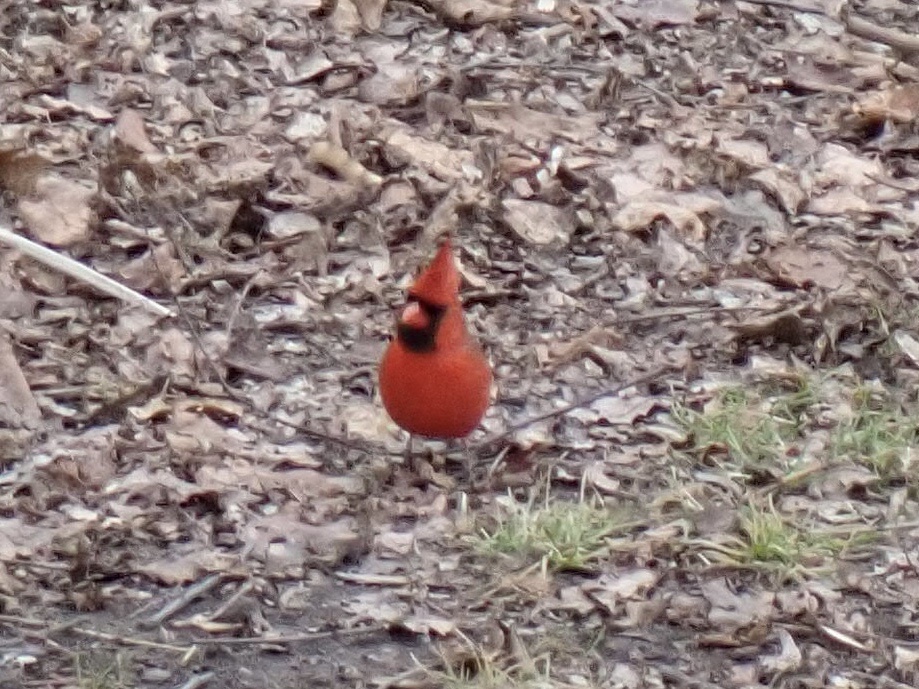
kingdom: Animalia
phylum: Chordata
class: Aves
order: Passeriformes
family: Cardinalidae
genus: Cardinalis
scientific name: Cardinalis cardinalis
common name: Northern cardinal
